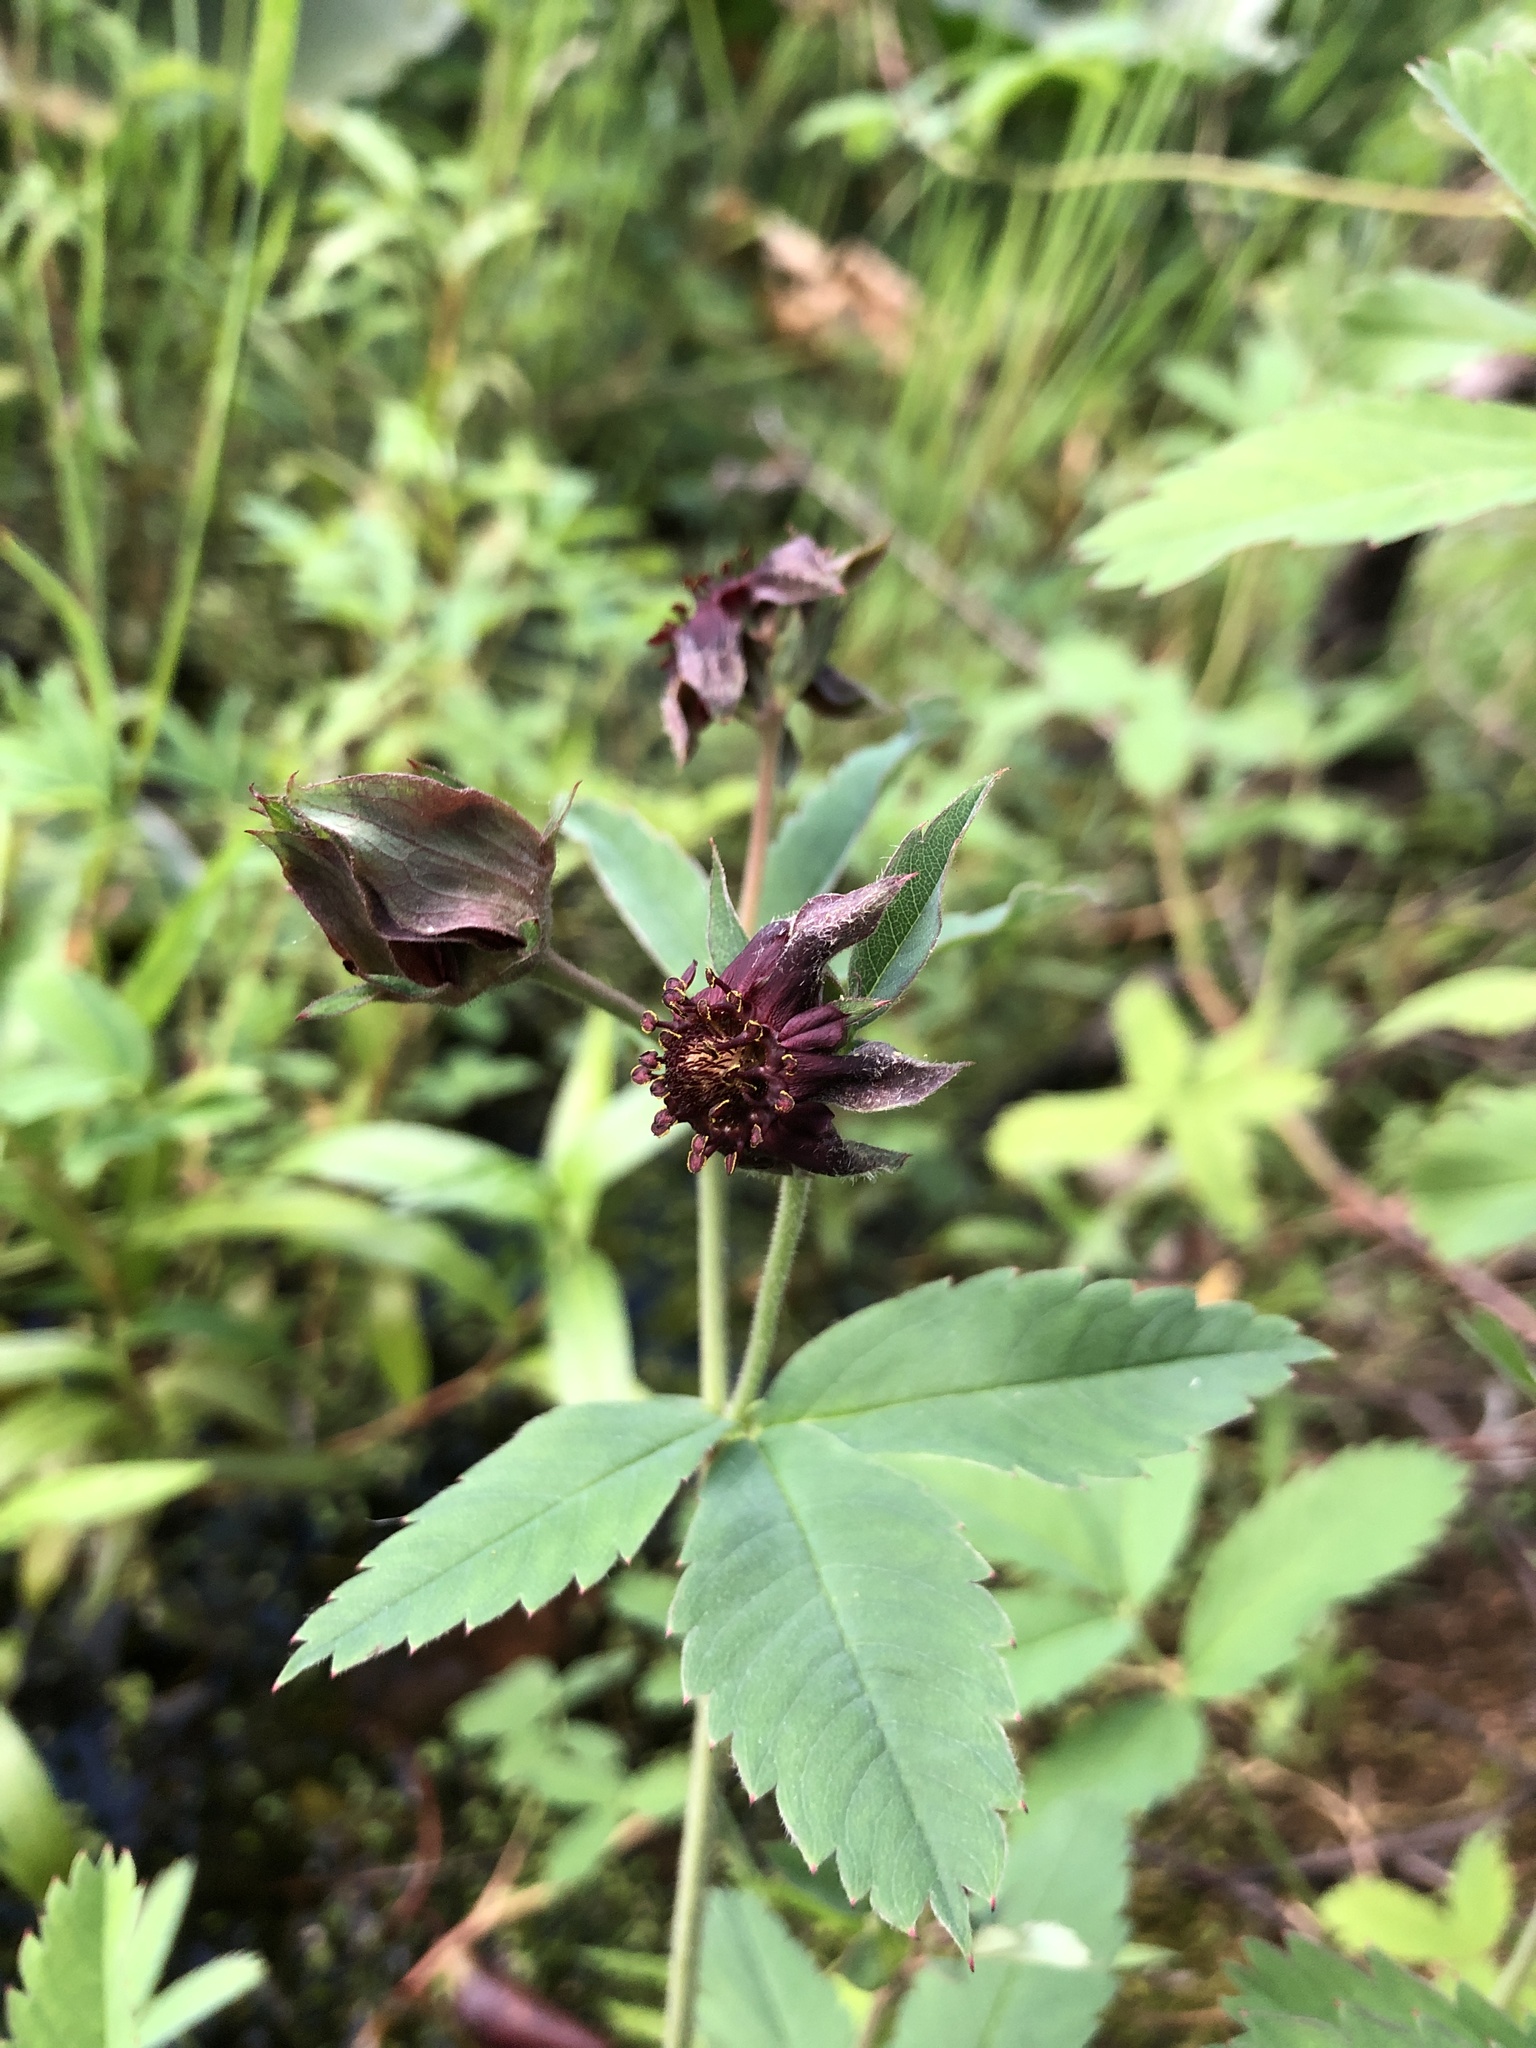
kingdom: Plantae
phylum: Tracheophyta
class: Magnoliopsida
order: Rosales
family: Rosaceae
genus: Comarum
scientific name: Comarum palustre
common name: Marsh cinquefoil
